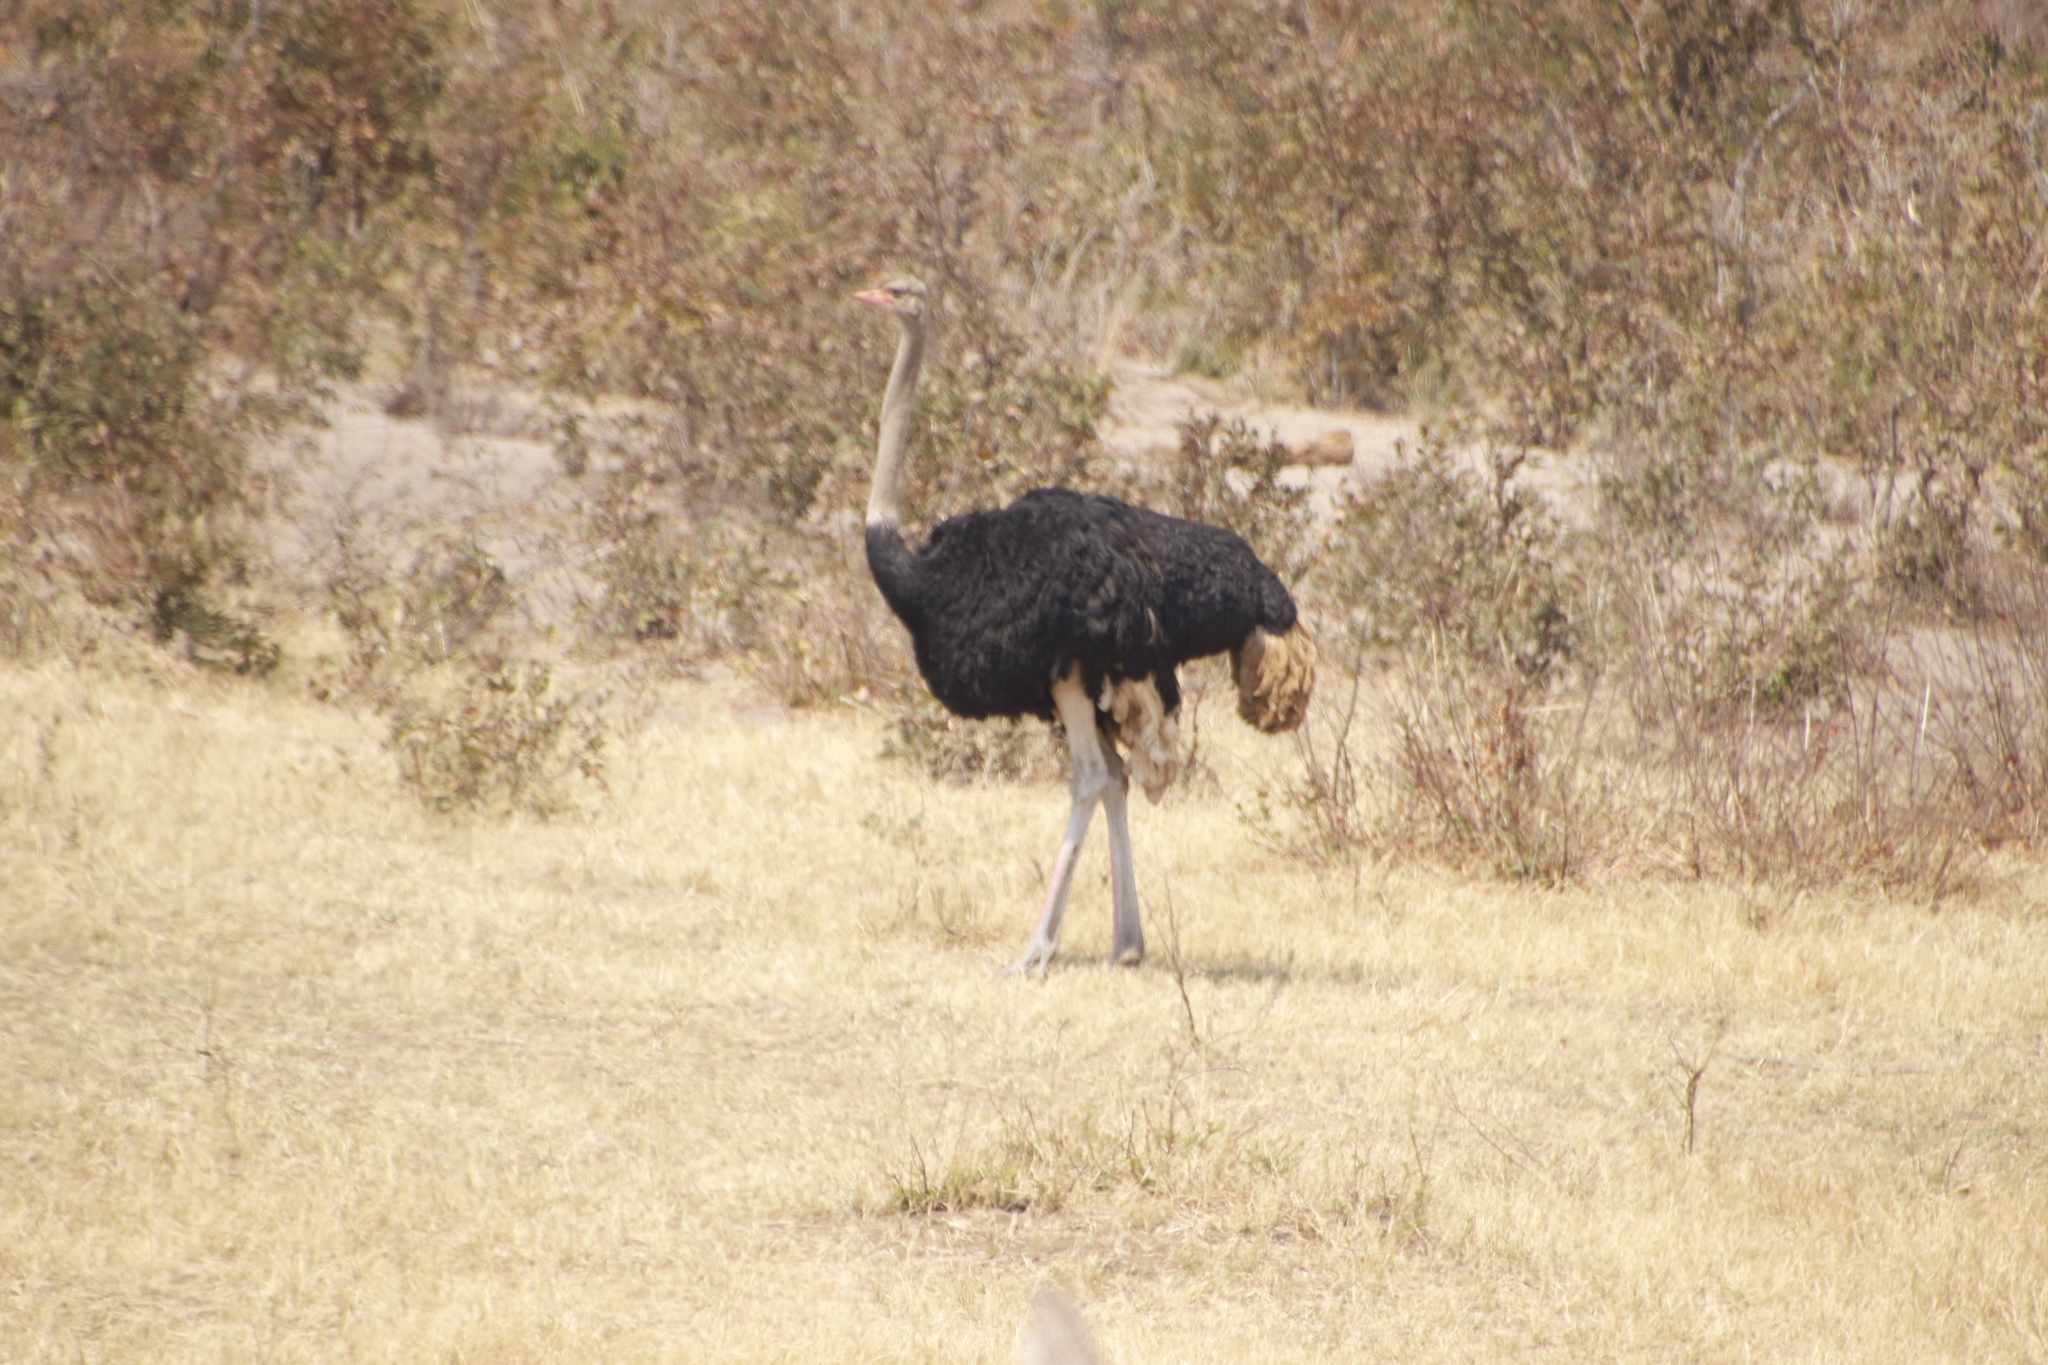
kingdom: Animalia
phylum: Chordata
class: Aves
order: Struthioniformes
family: Struthionidae
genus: Struthio
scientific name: Struthio camelus
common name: Common ostrich
